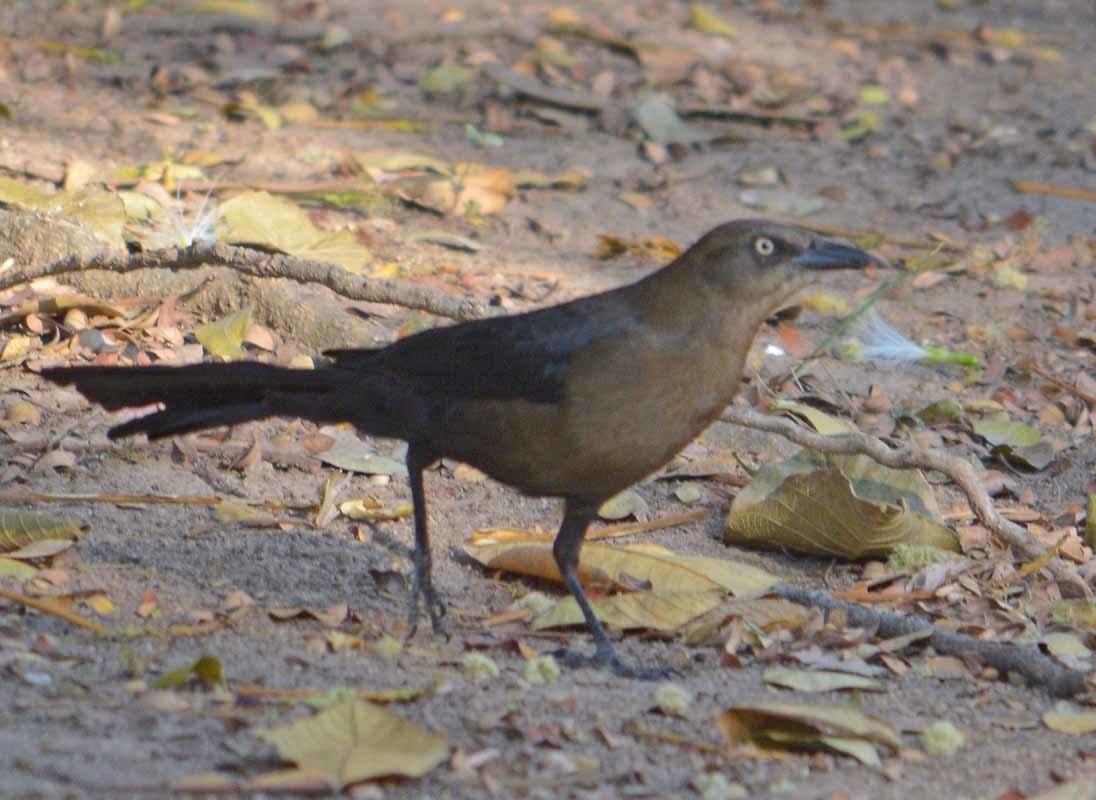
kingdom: Animalia
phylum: Chordata
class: Aves
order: Passeriformes
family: Icteridae
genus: Quiscalus
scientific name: Quiscalus mexicanus
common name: Great-tailed grackle
